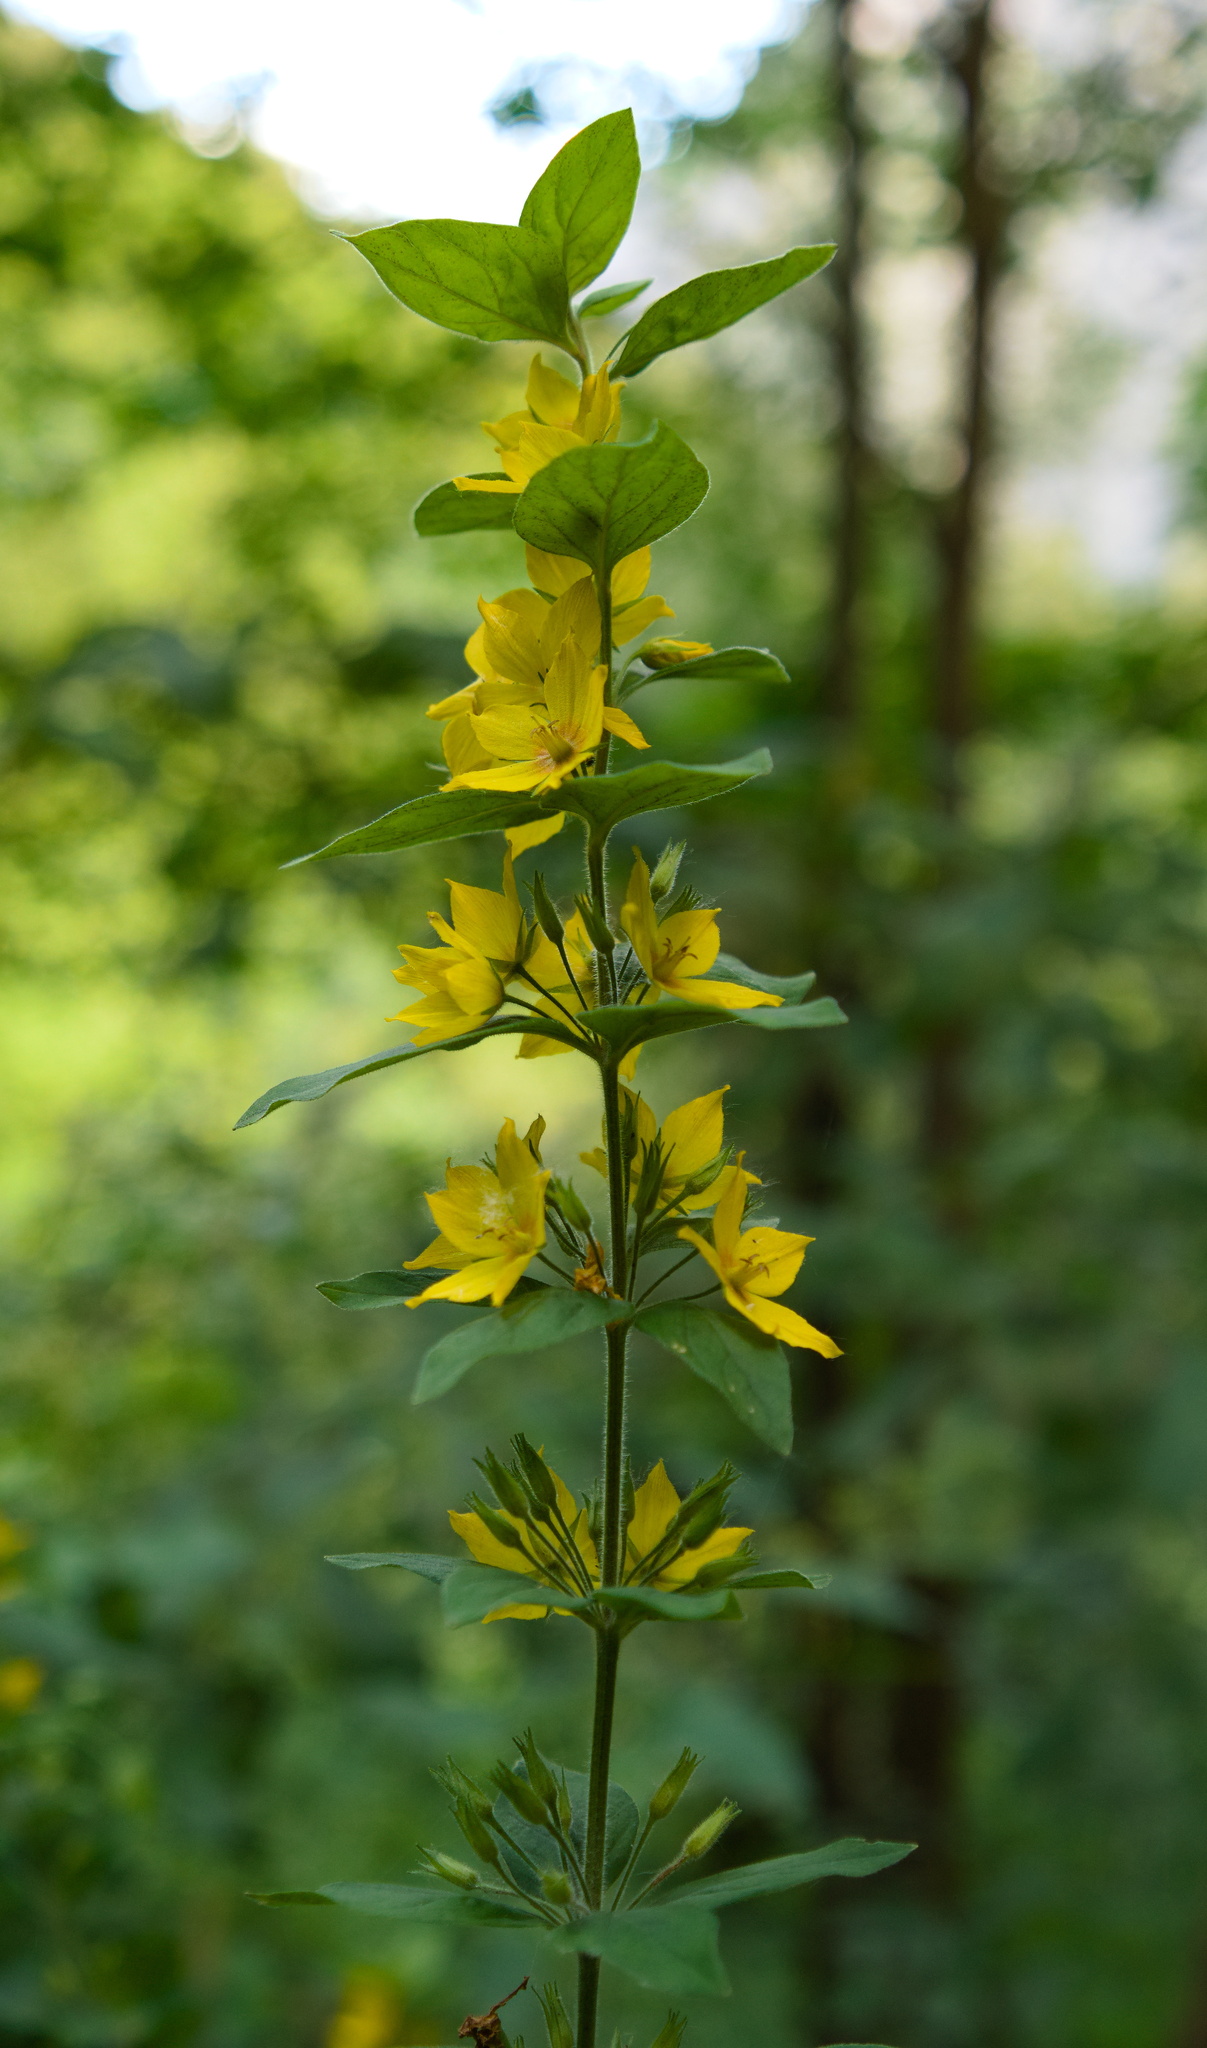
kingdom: Plantae
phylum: Tracheophyta
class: Magnoliopsida
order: Ericales
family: Primulaceae
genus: Lysimachia
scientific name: Lysimachia punctata
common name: Dotted loosestrife
